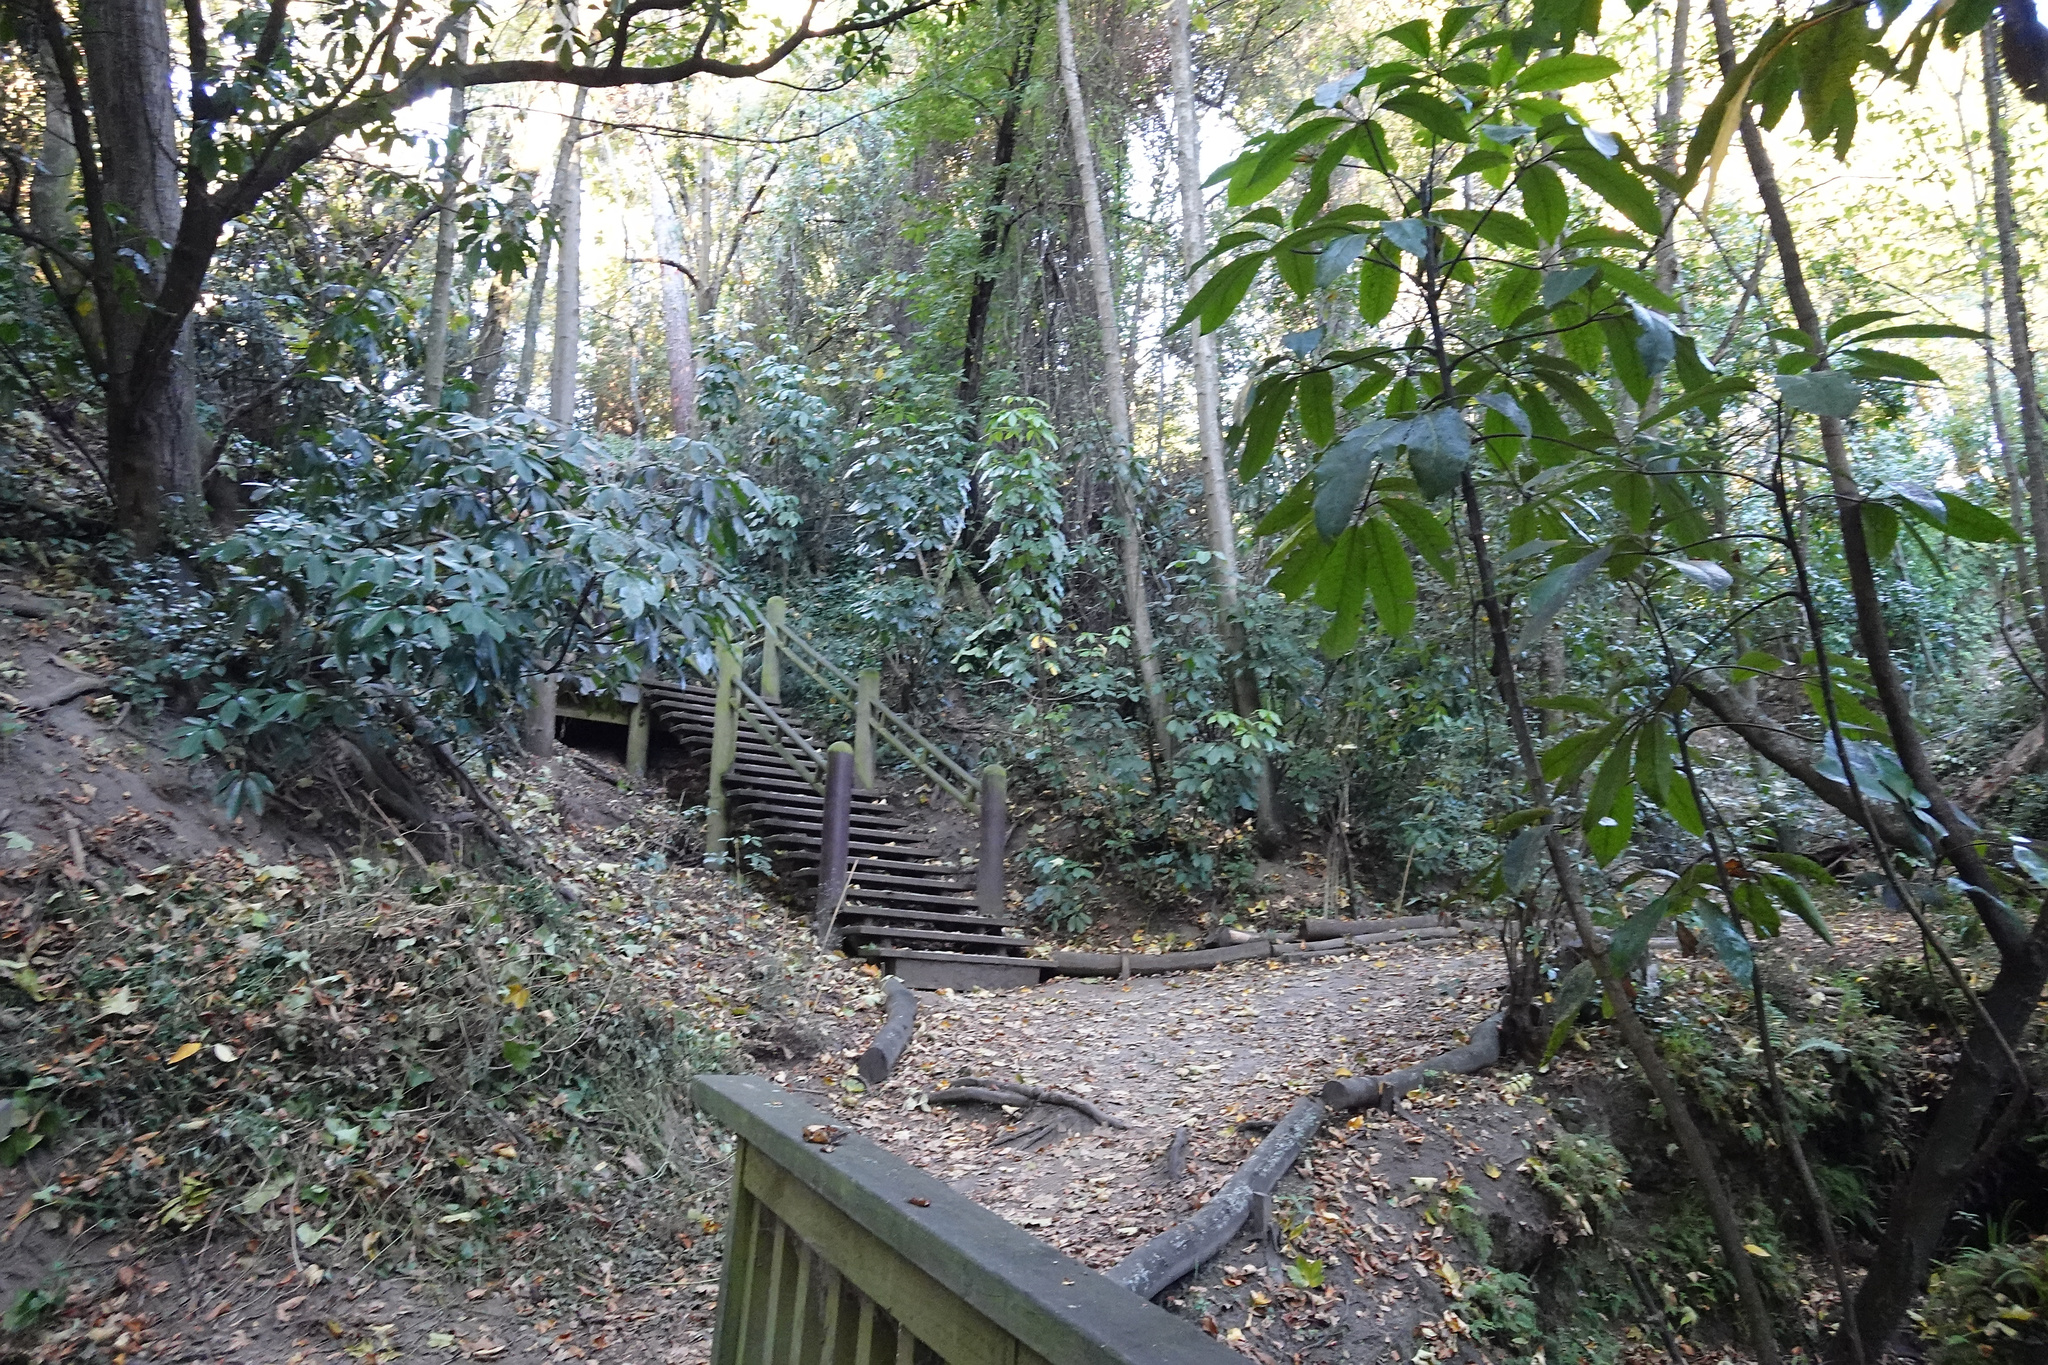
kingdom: Plantae
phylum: Tracheophyta
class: Magnoliopsida
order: Apiales
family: Araliaceae
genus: Neopanax
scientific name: Neopanax arboreus
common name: Five-fingers
